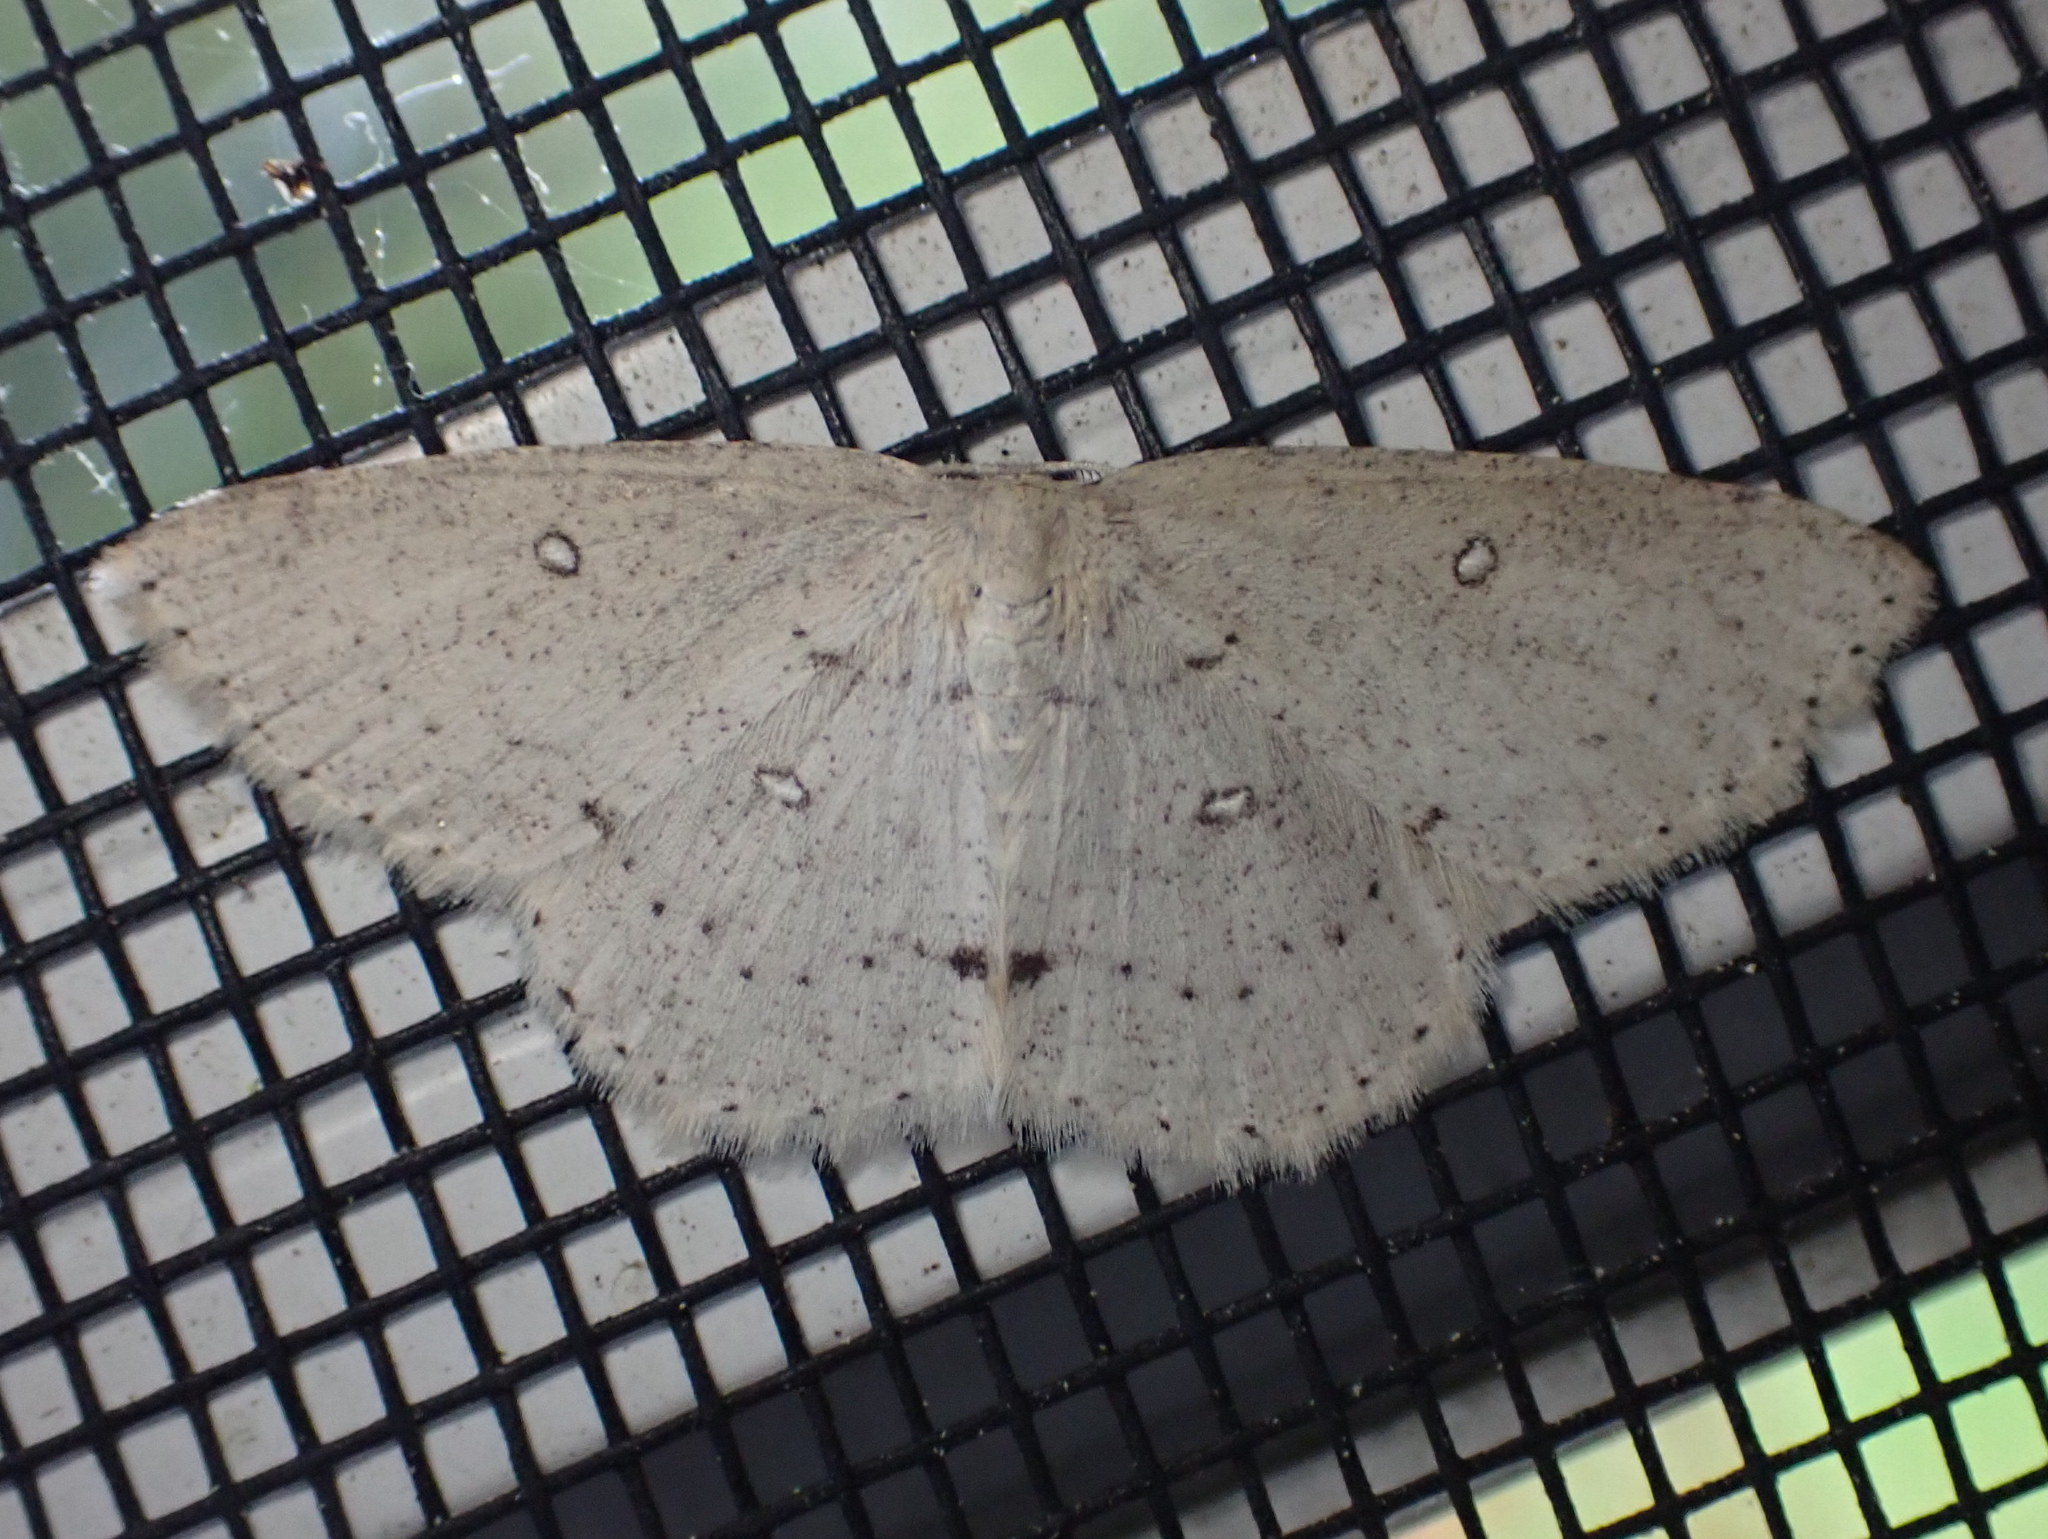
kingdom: Animalia
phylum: Arthropoda
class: Insecta
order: Lepidoptera
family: Geometridae
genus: Cyclophora
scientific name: Cyclophora pendulinaria
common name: Sweet fern geometer
